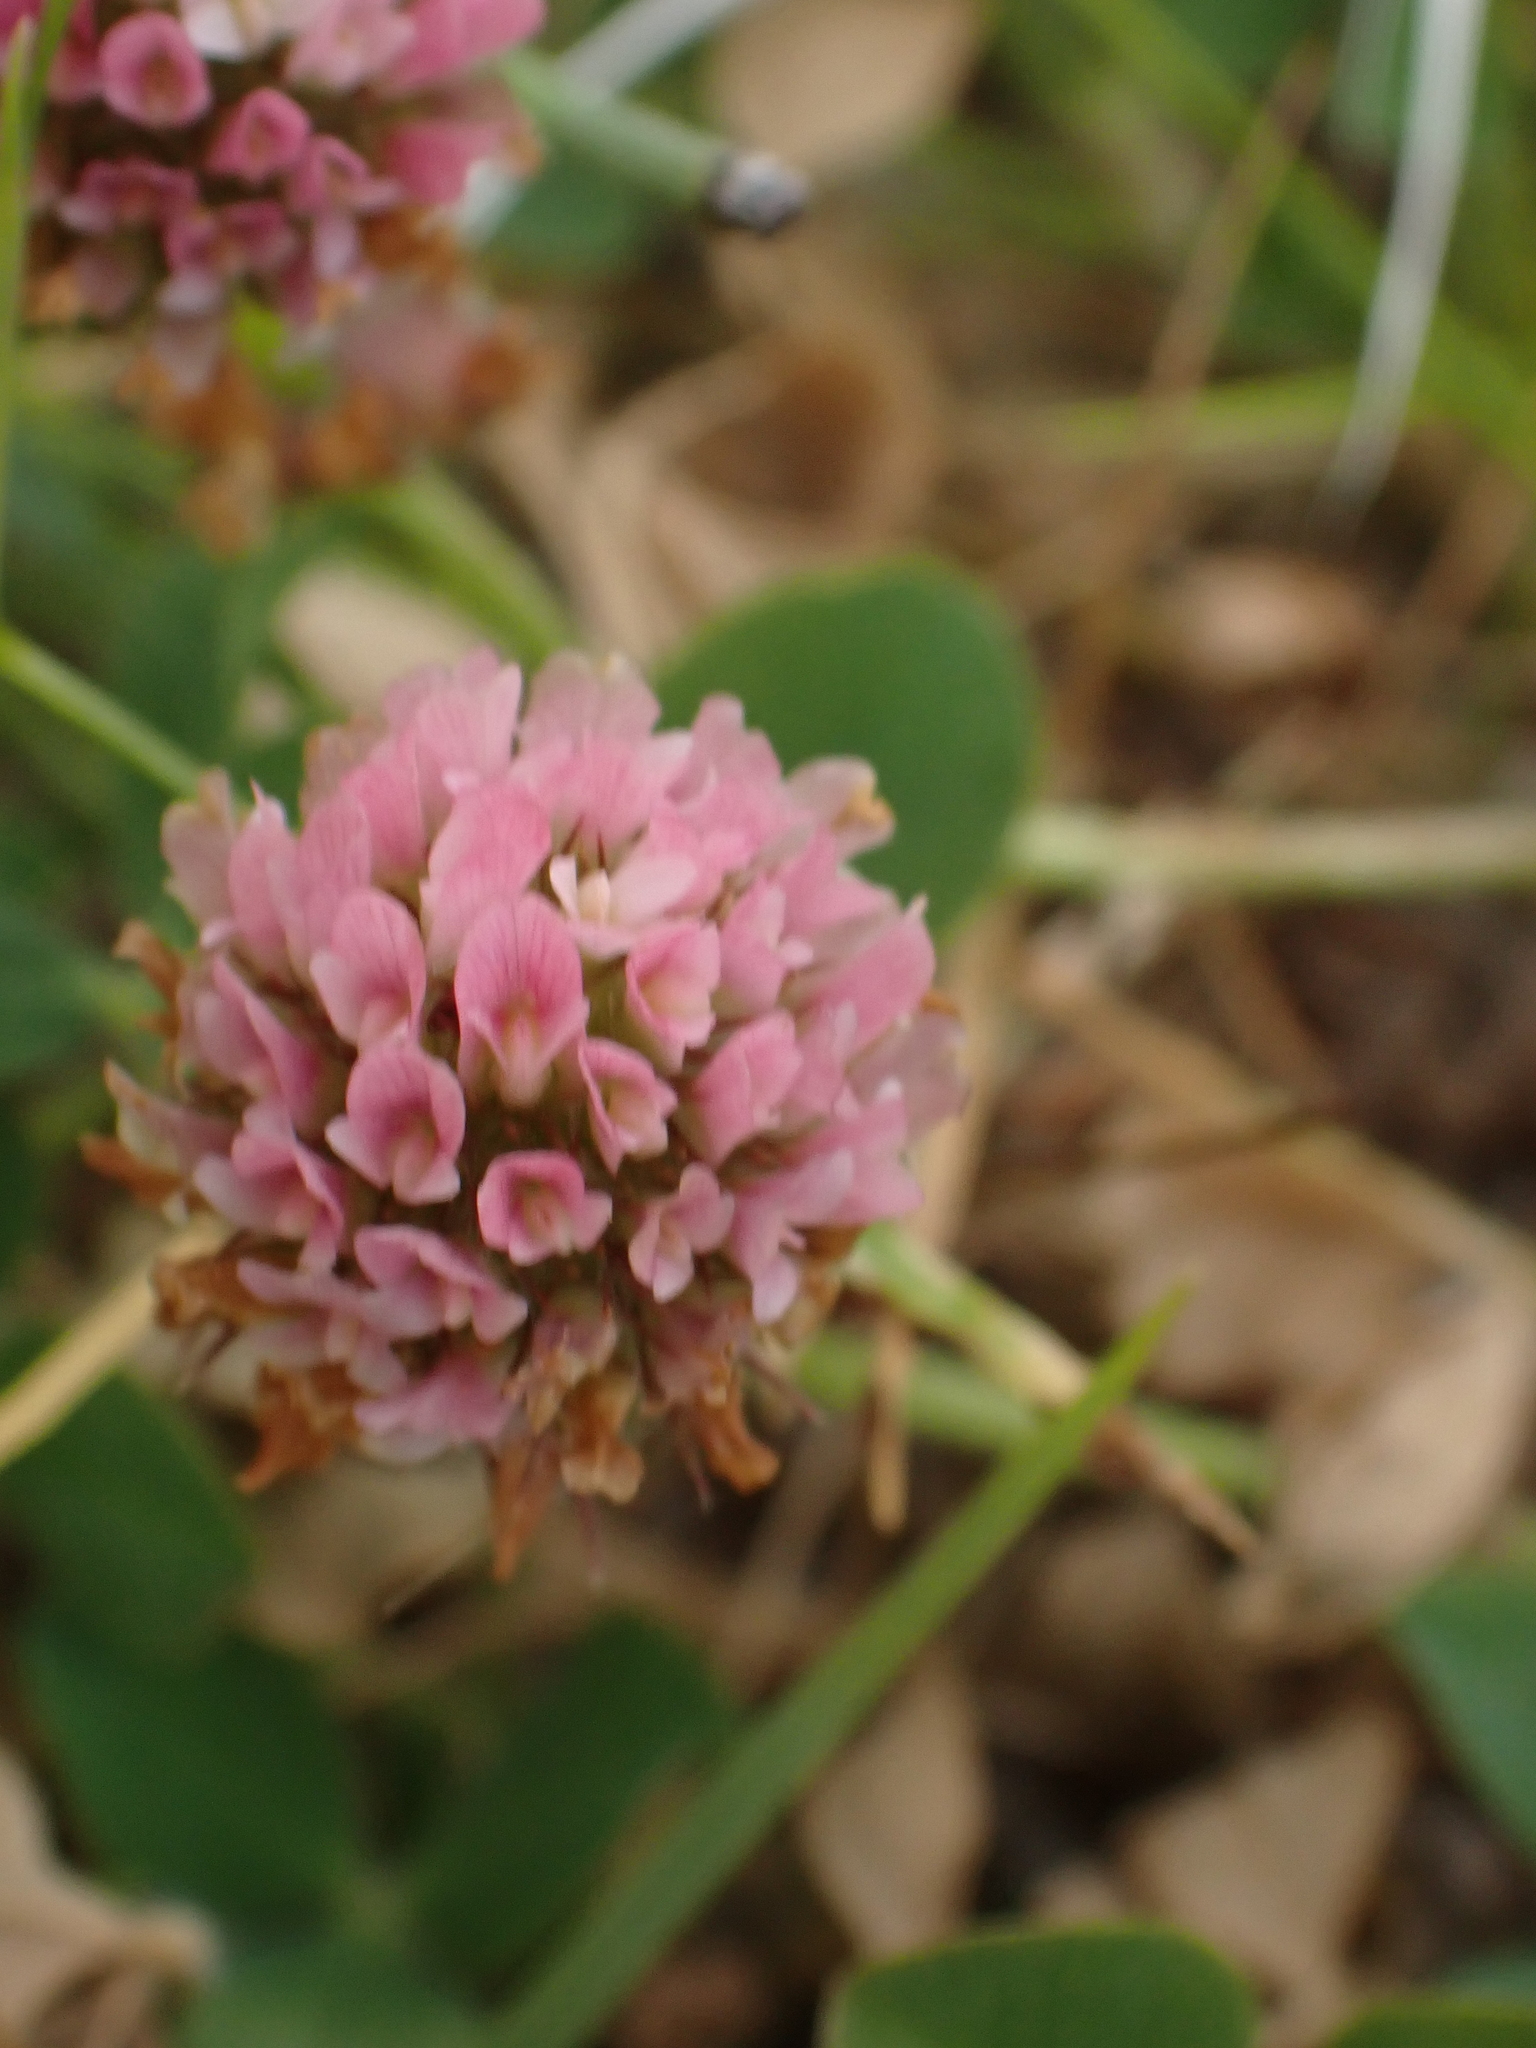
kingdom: Plantae
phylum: Tracheophyta
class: Magnoliopsida
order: Fabales
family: Fabaceae
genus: Trifolium
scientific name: Trifolium fragiferum
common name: Strawberry clover
